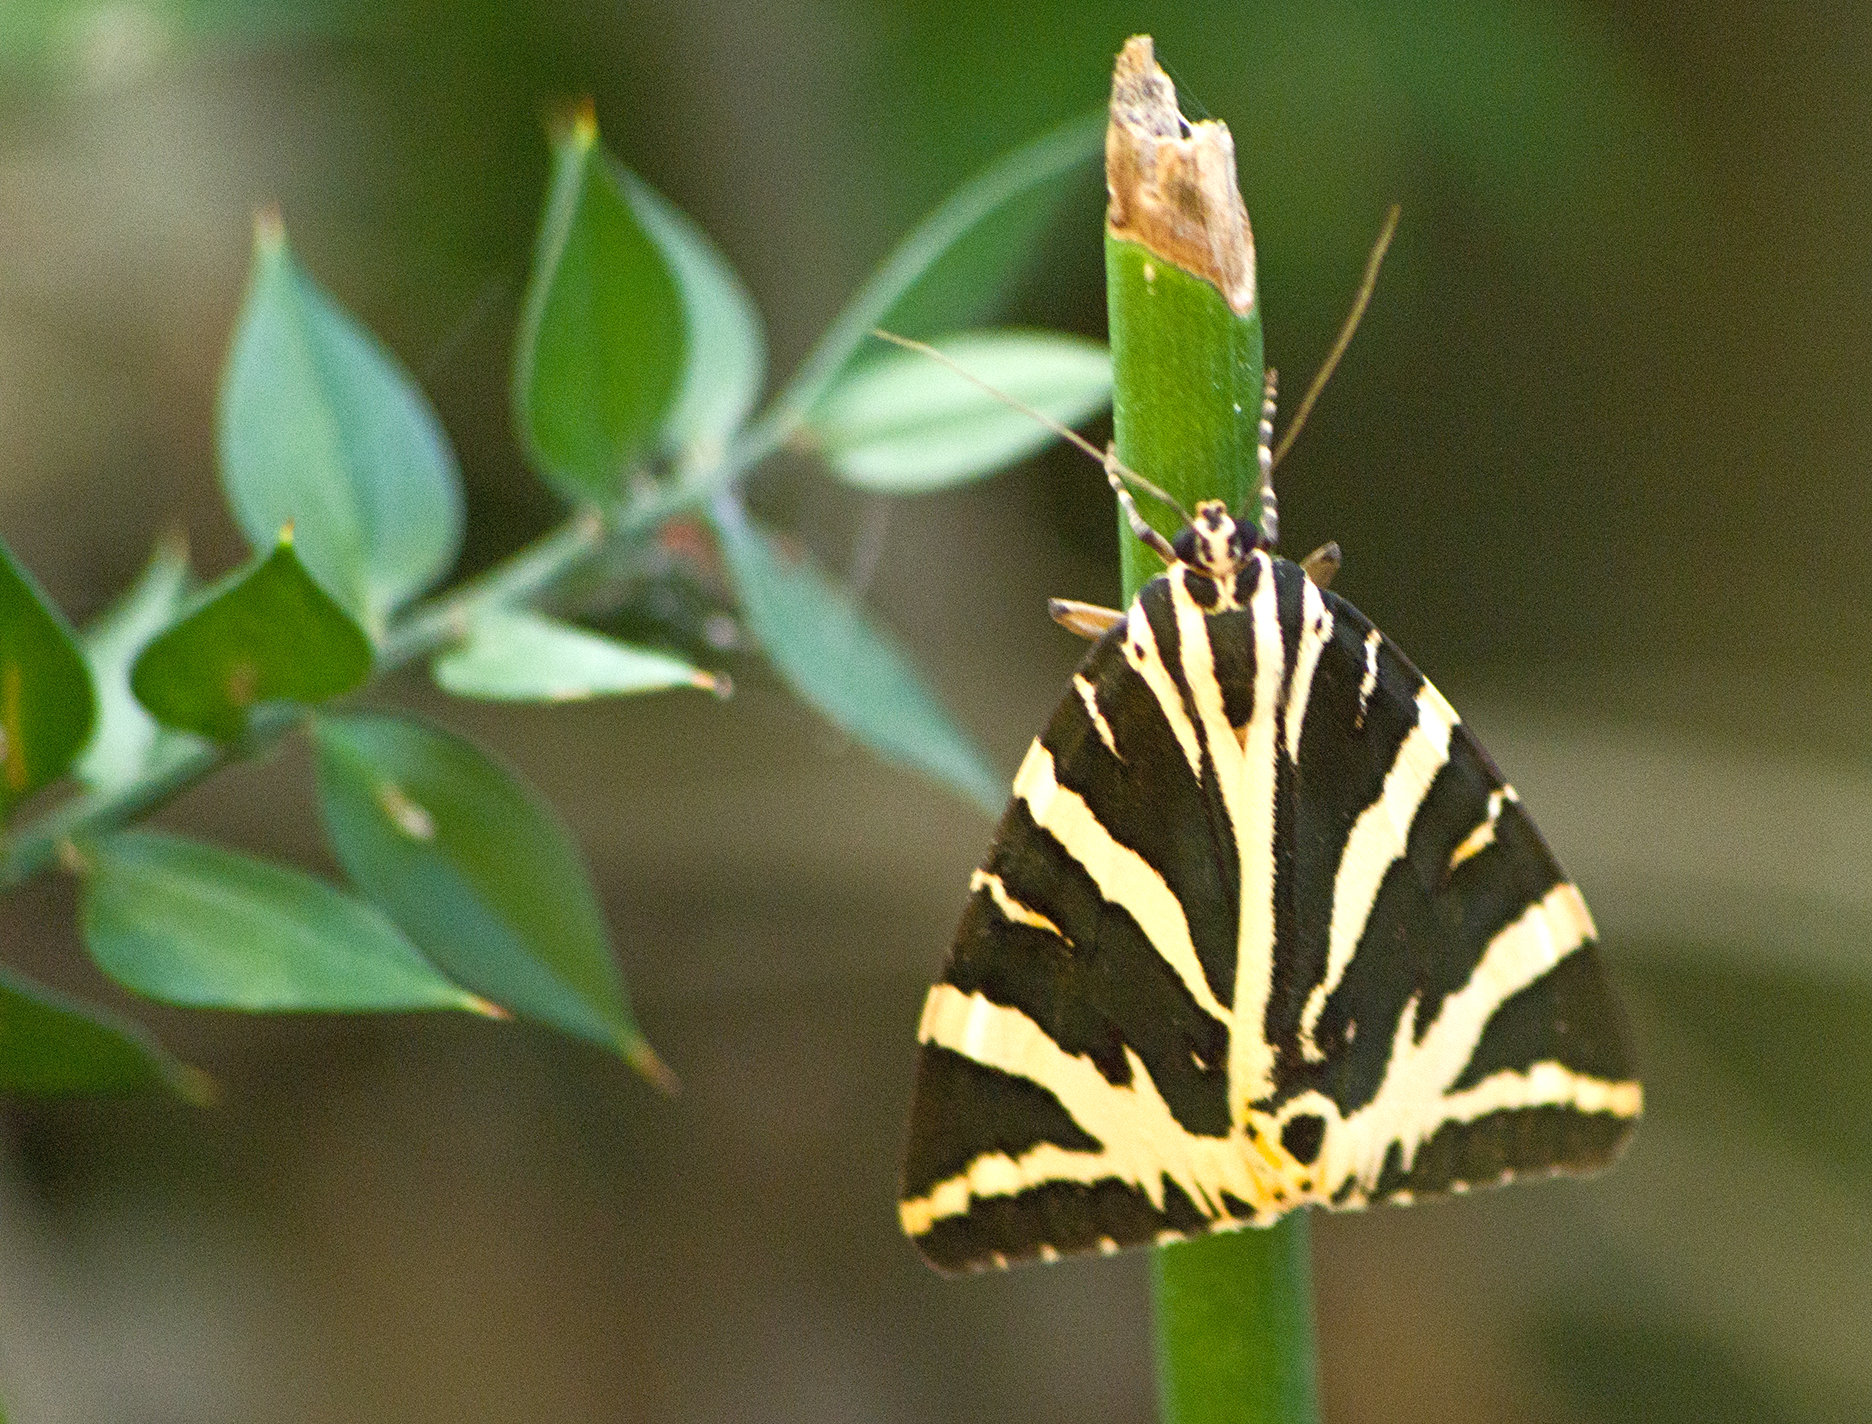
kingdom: Animalia
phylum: Arthropoda
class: Insecta
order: Lepidoptera
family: Erebidae
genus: Euplagia
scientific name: Euplagia quadripunctaria
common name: Jersey tiger
